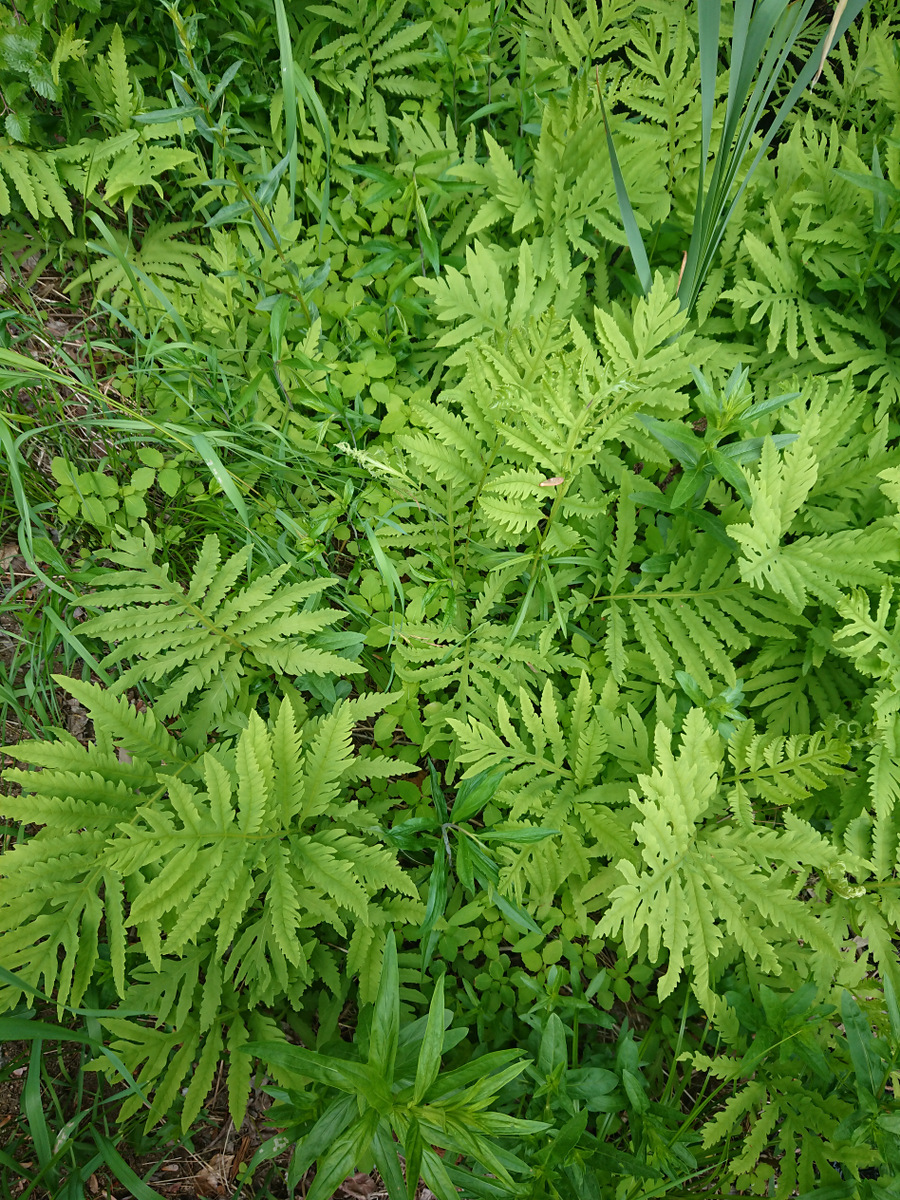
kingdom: Plantae
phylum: Tracheophyta
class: Polypodiopsida
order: Polypodiales
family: Onocleaceae
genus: Onoclea
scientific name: Onoclea sensibilis
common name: Sensitive fern
